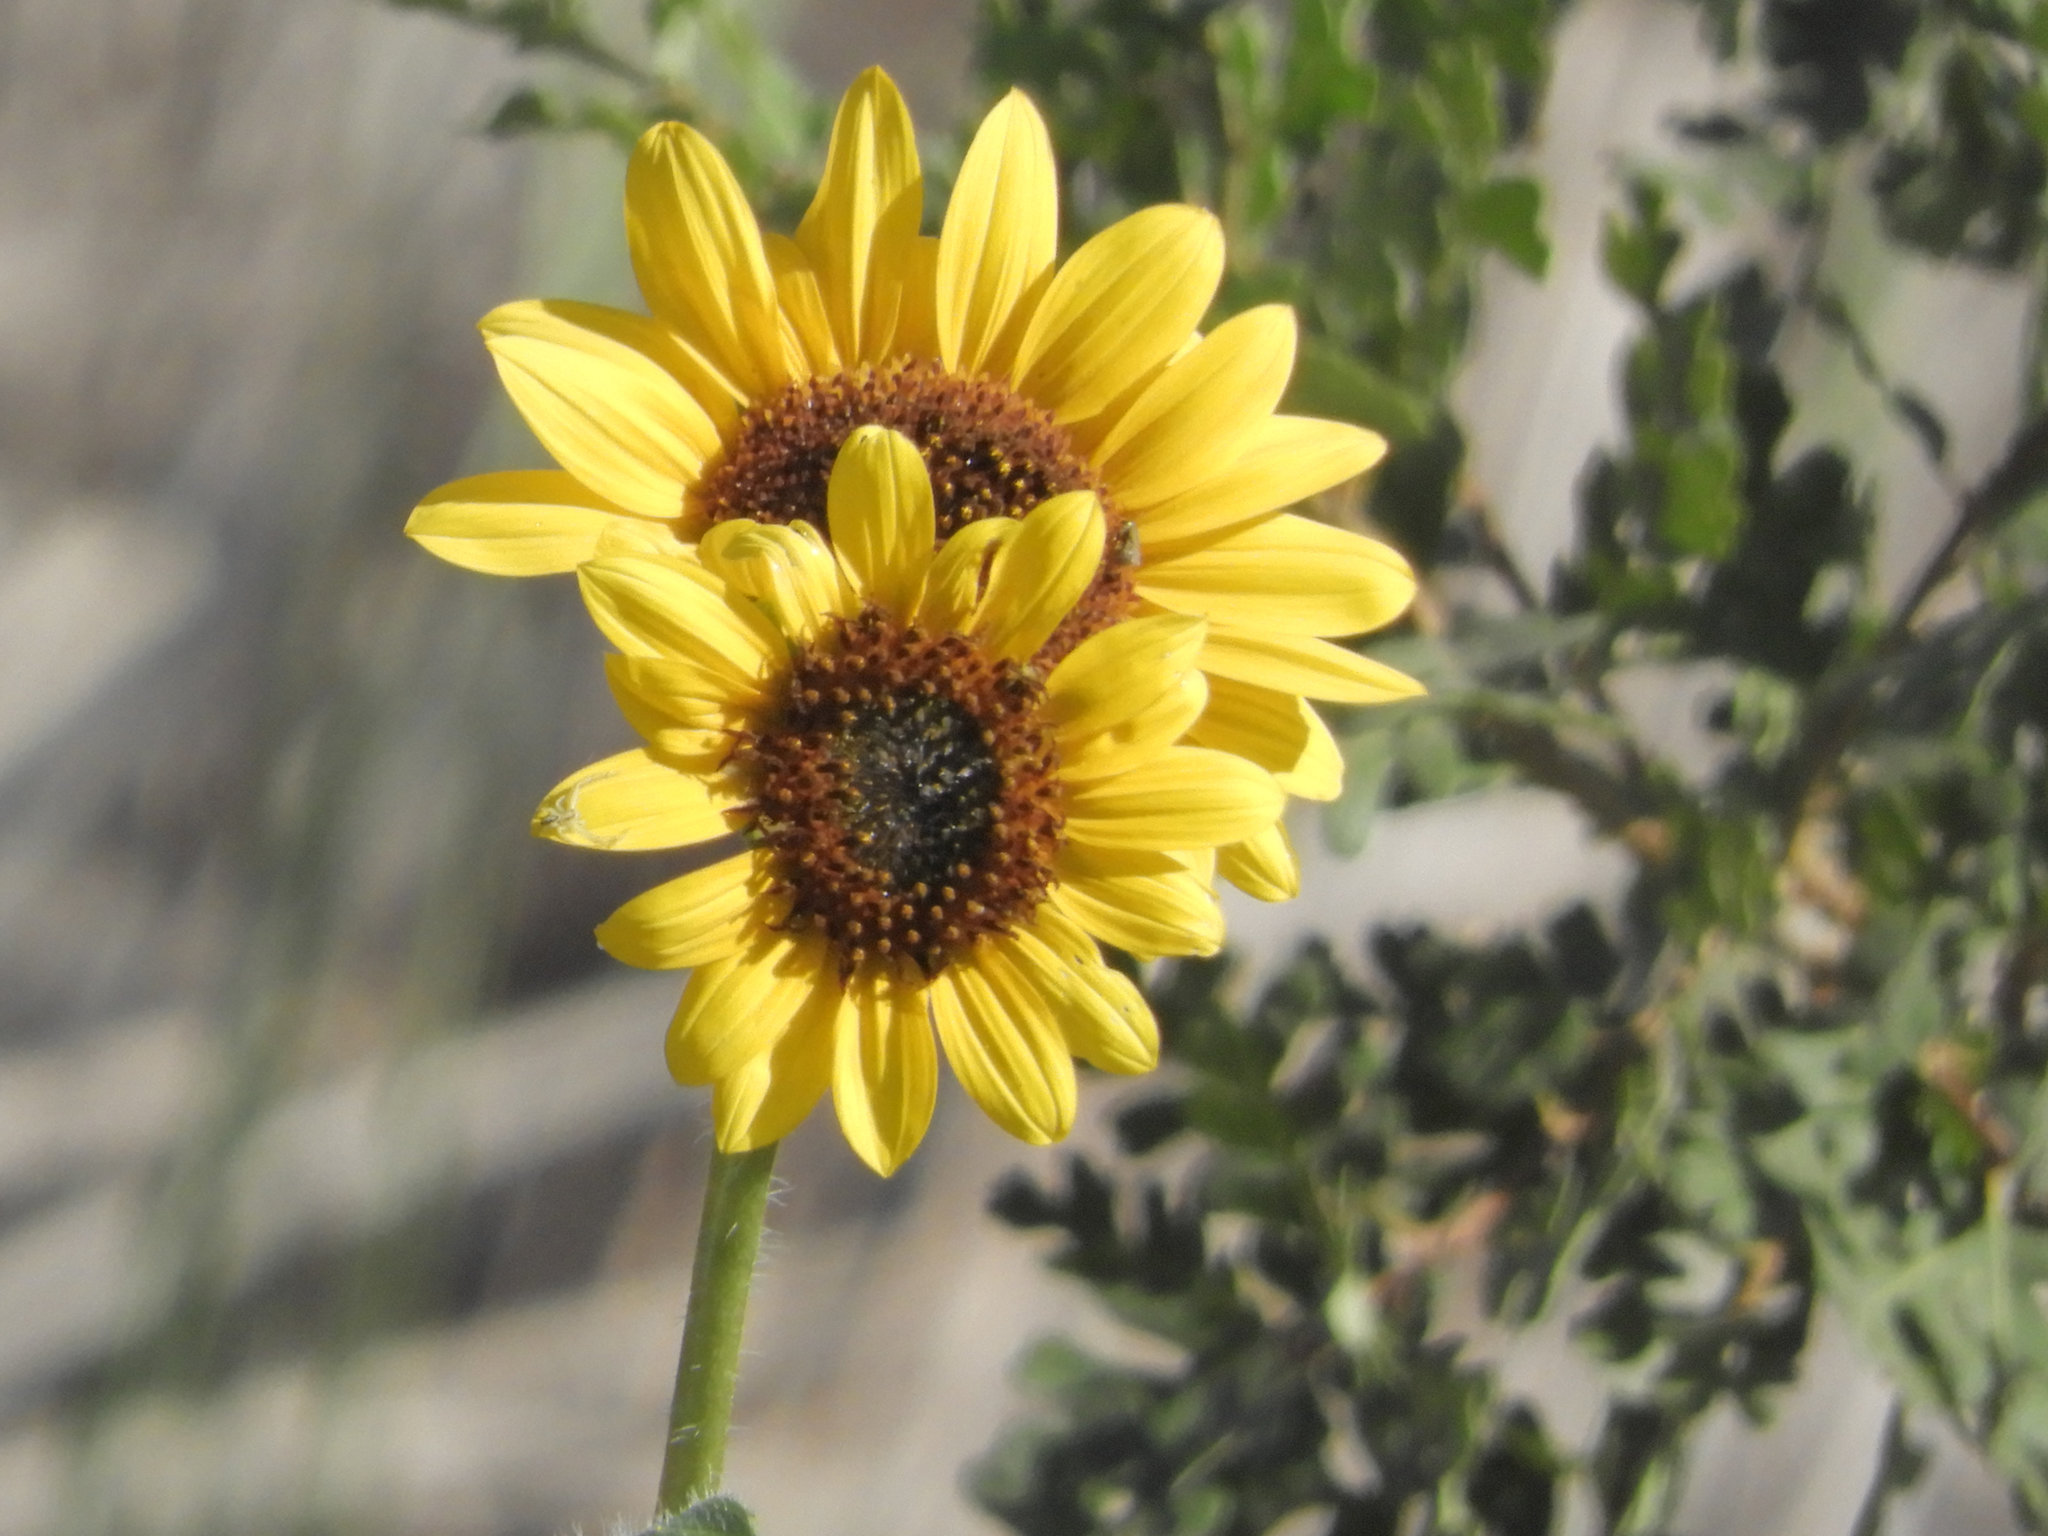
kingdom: Plantae
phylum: Tracheophyta
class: Magnoliopsida
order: Asterales
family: Asteraceae
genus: Helianthus
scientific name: Helianthus annuus
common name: Sunflower
